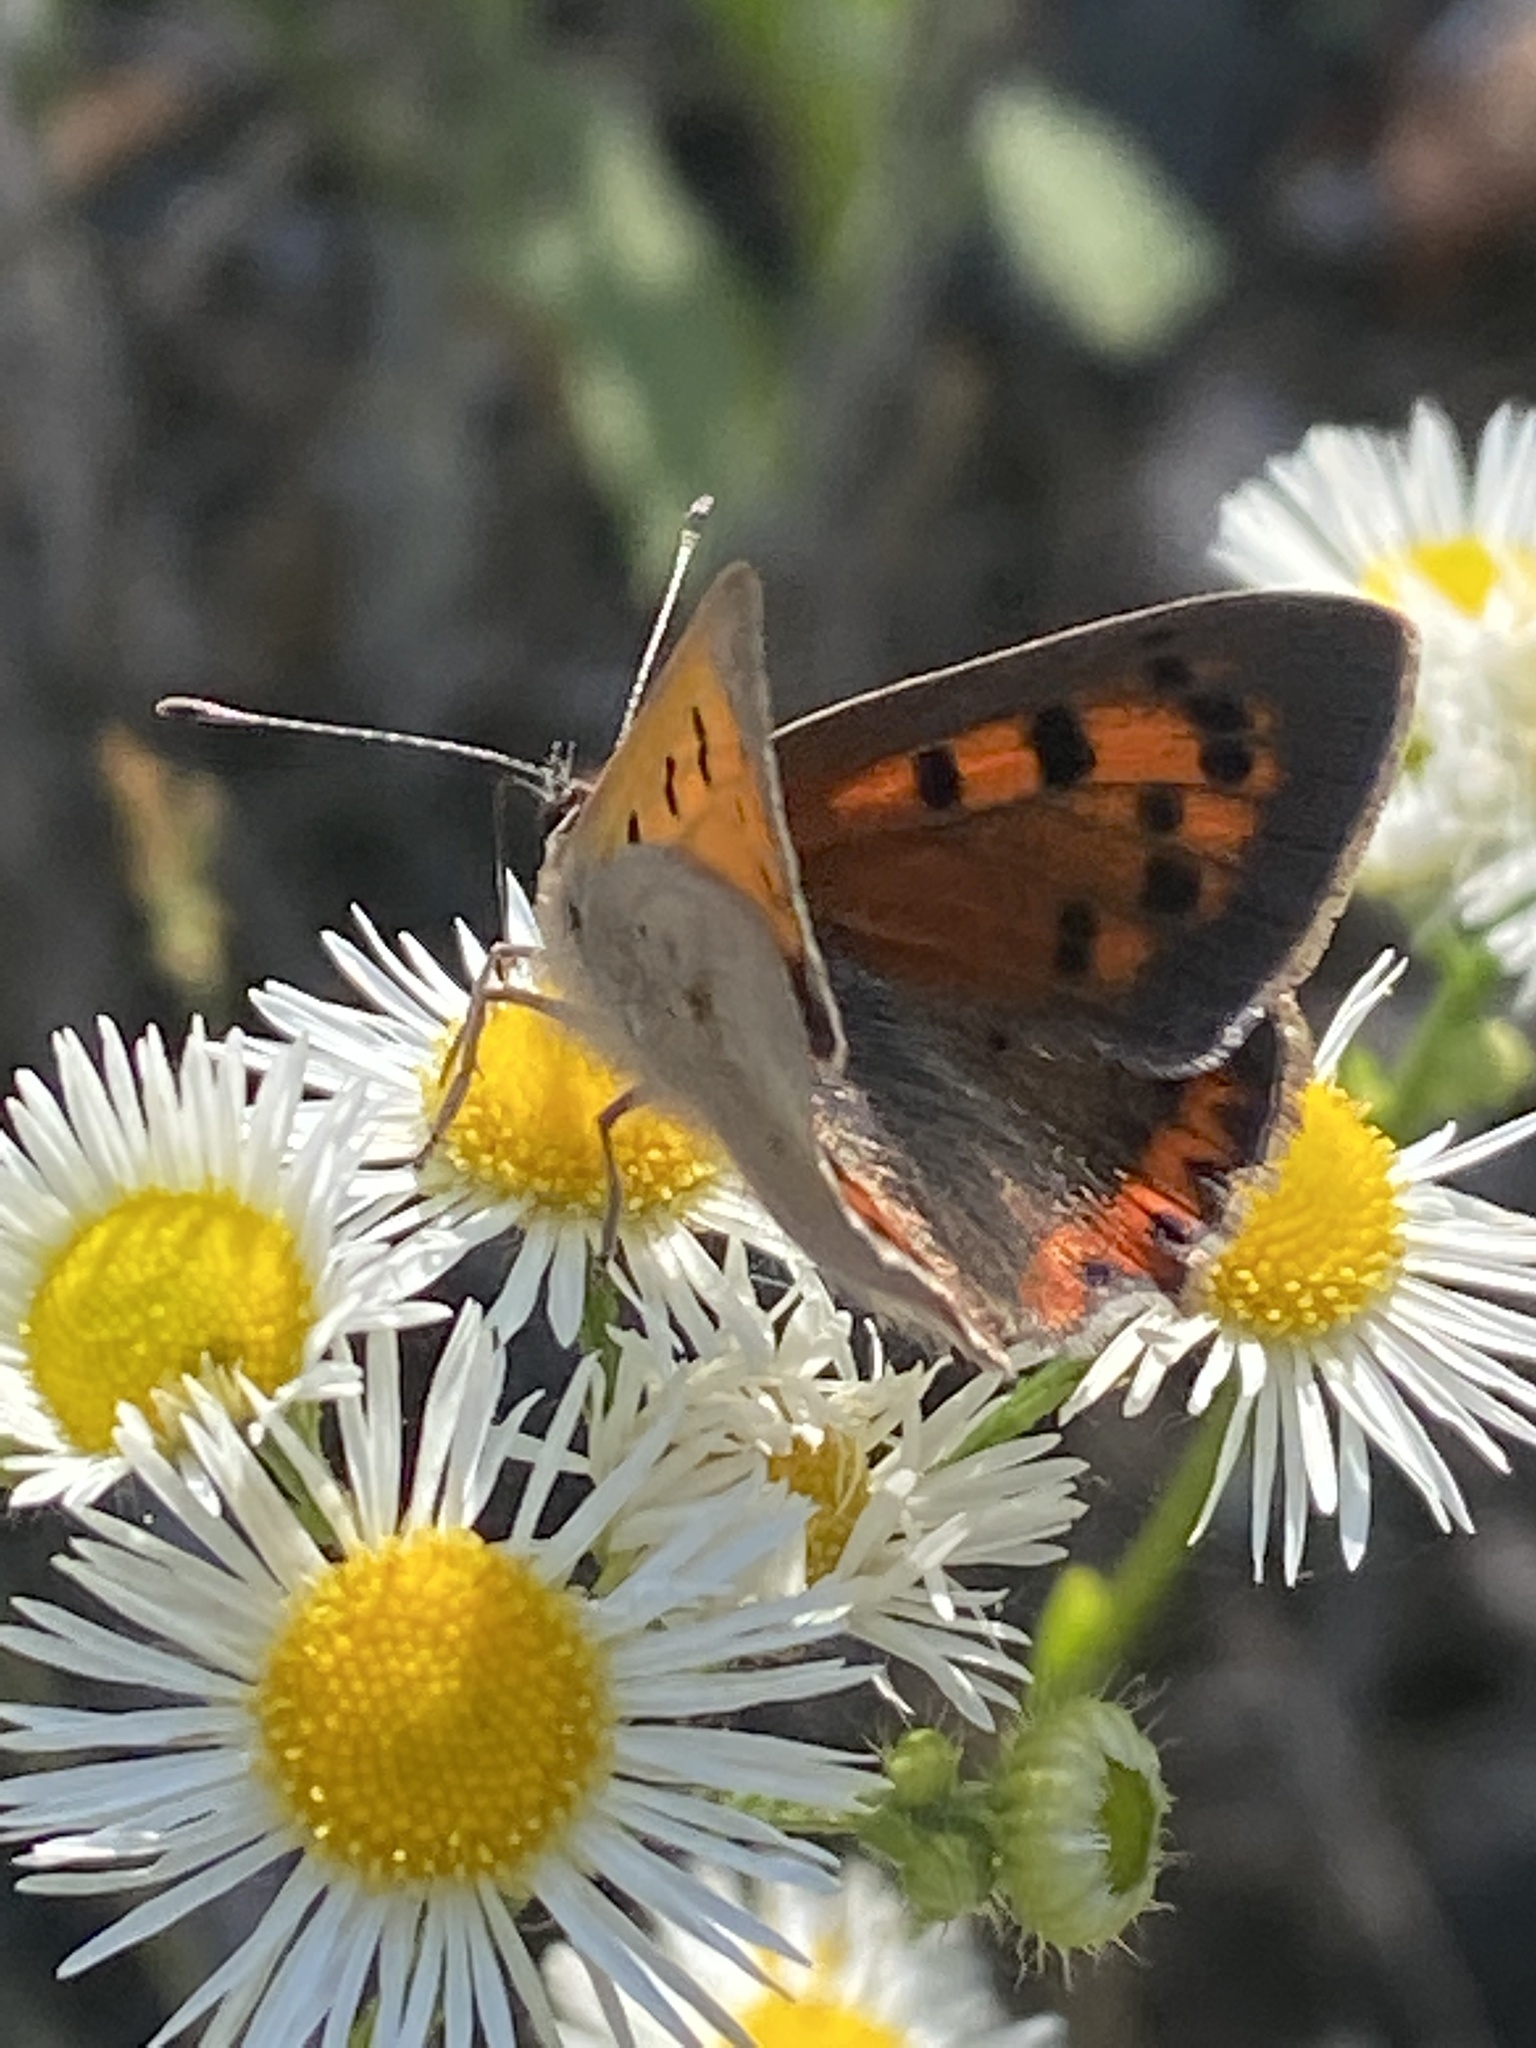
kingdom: Animalia
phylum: Arthropoda
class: Insecta
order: Lepidoptera
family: Lycaenidae
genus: Lycaena
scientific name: Lycaena phlaeas
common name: Small copper
